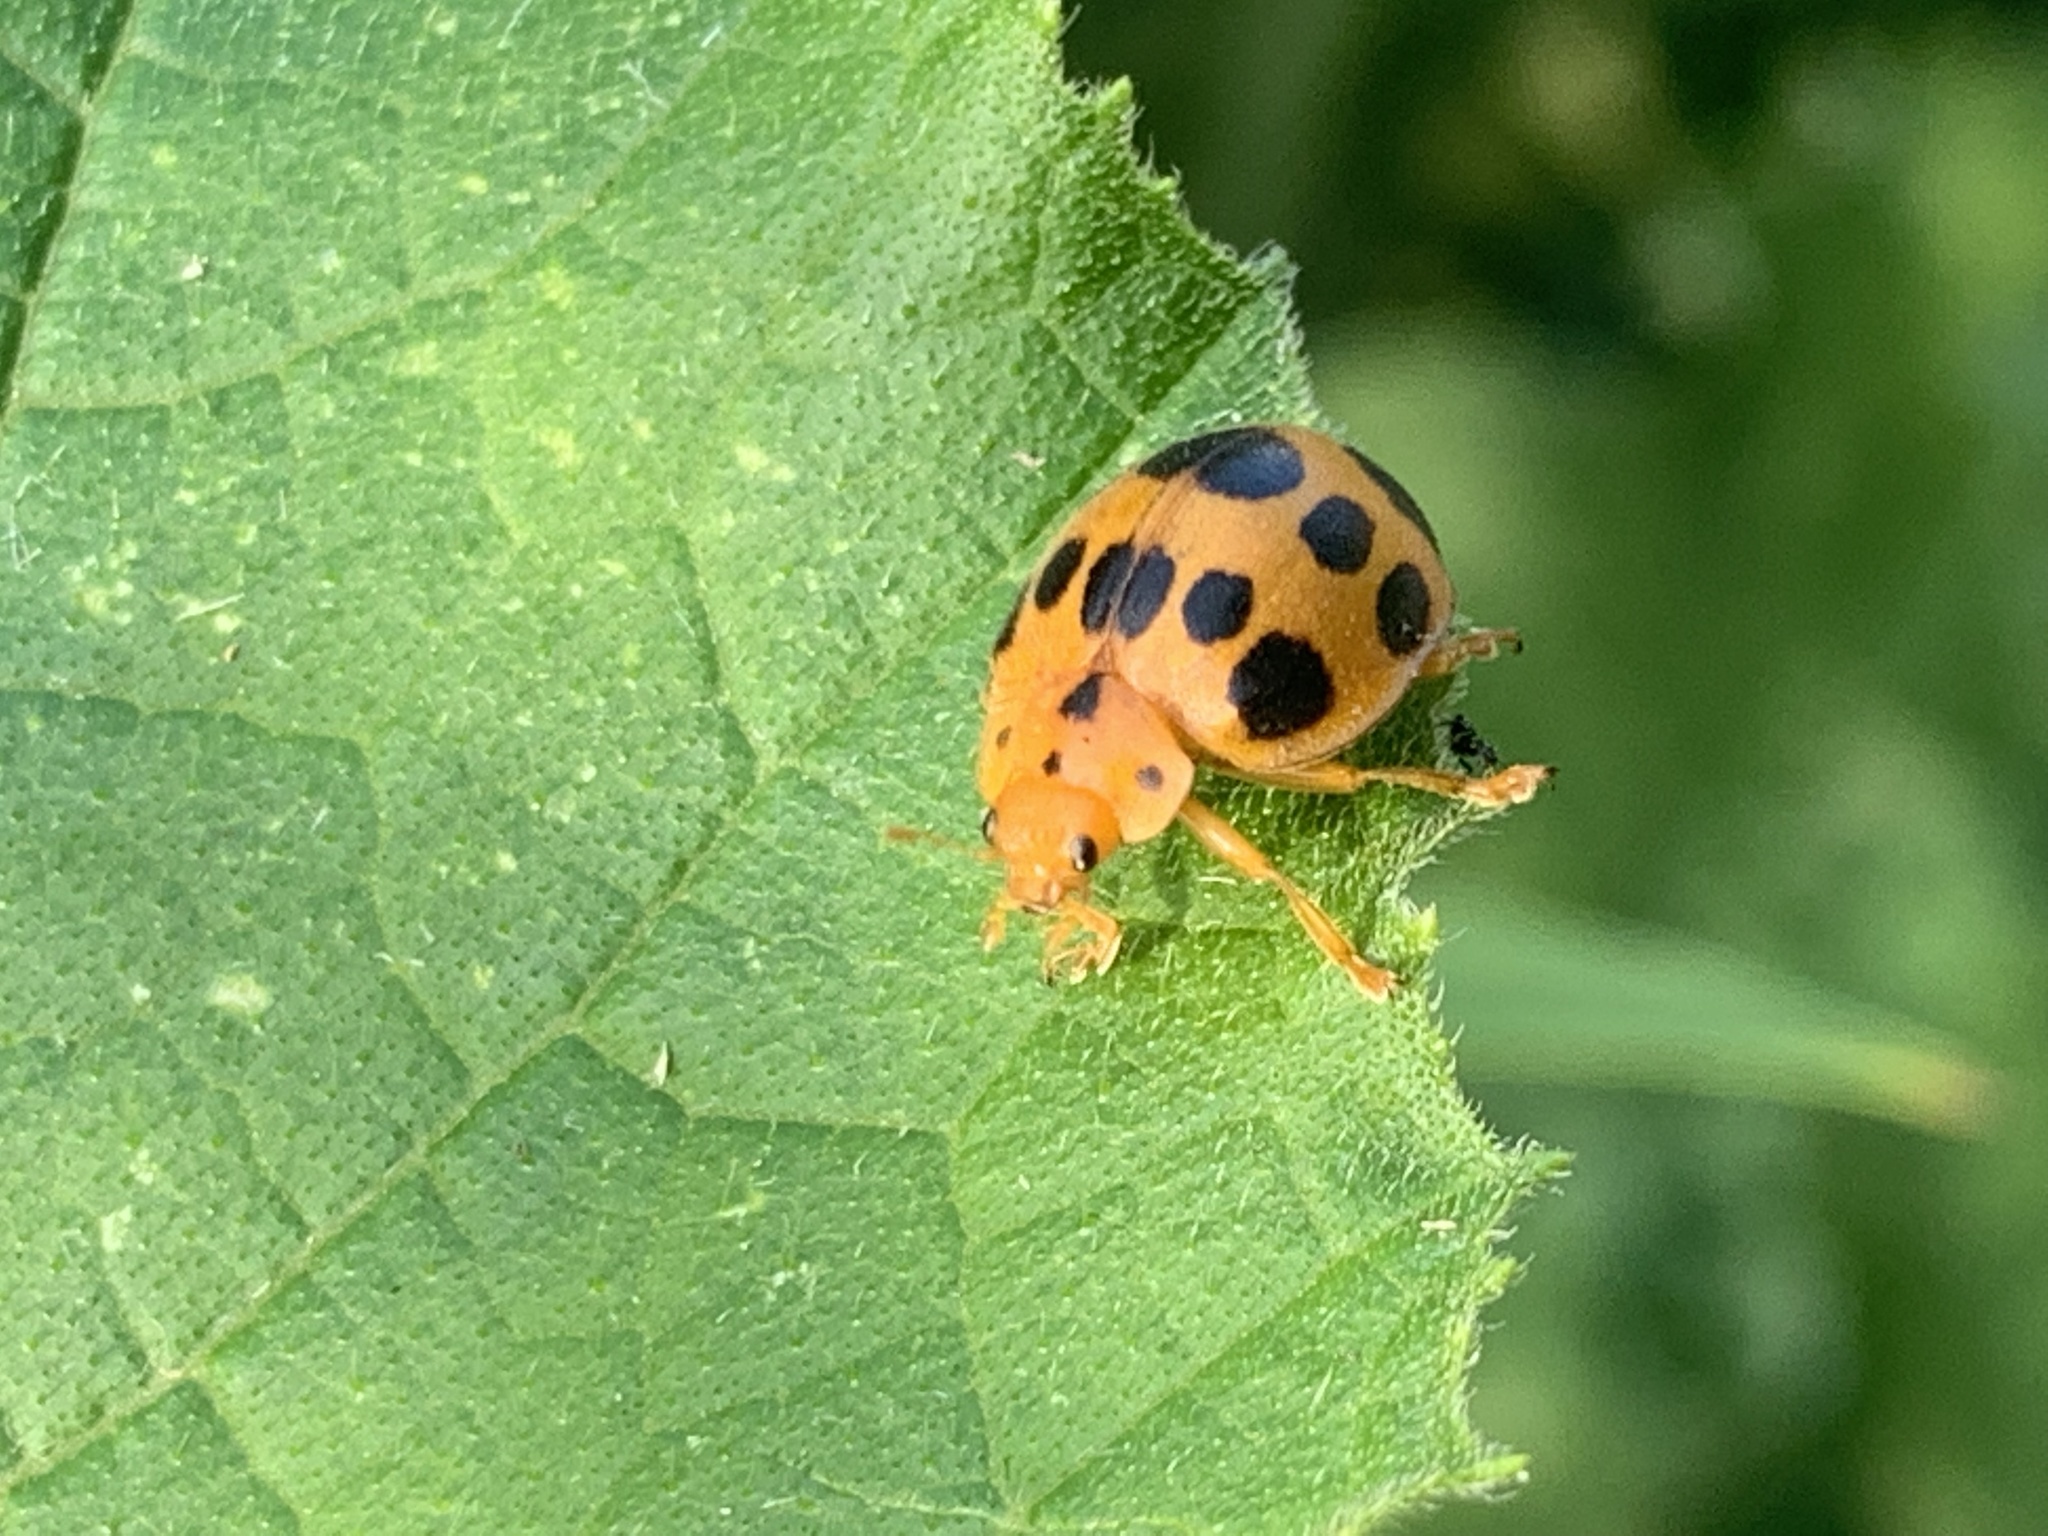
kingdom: Animalia
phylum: Arthropoda
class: Insecta
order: Coleoptera
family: Coccinellidae
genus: Epilachna
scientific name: Epilachna borealis
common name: Squash beetle
